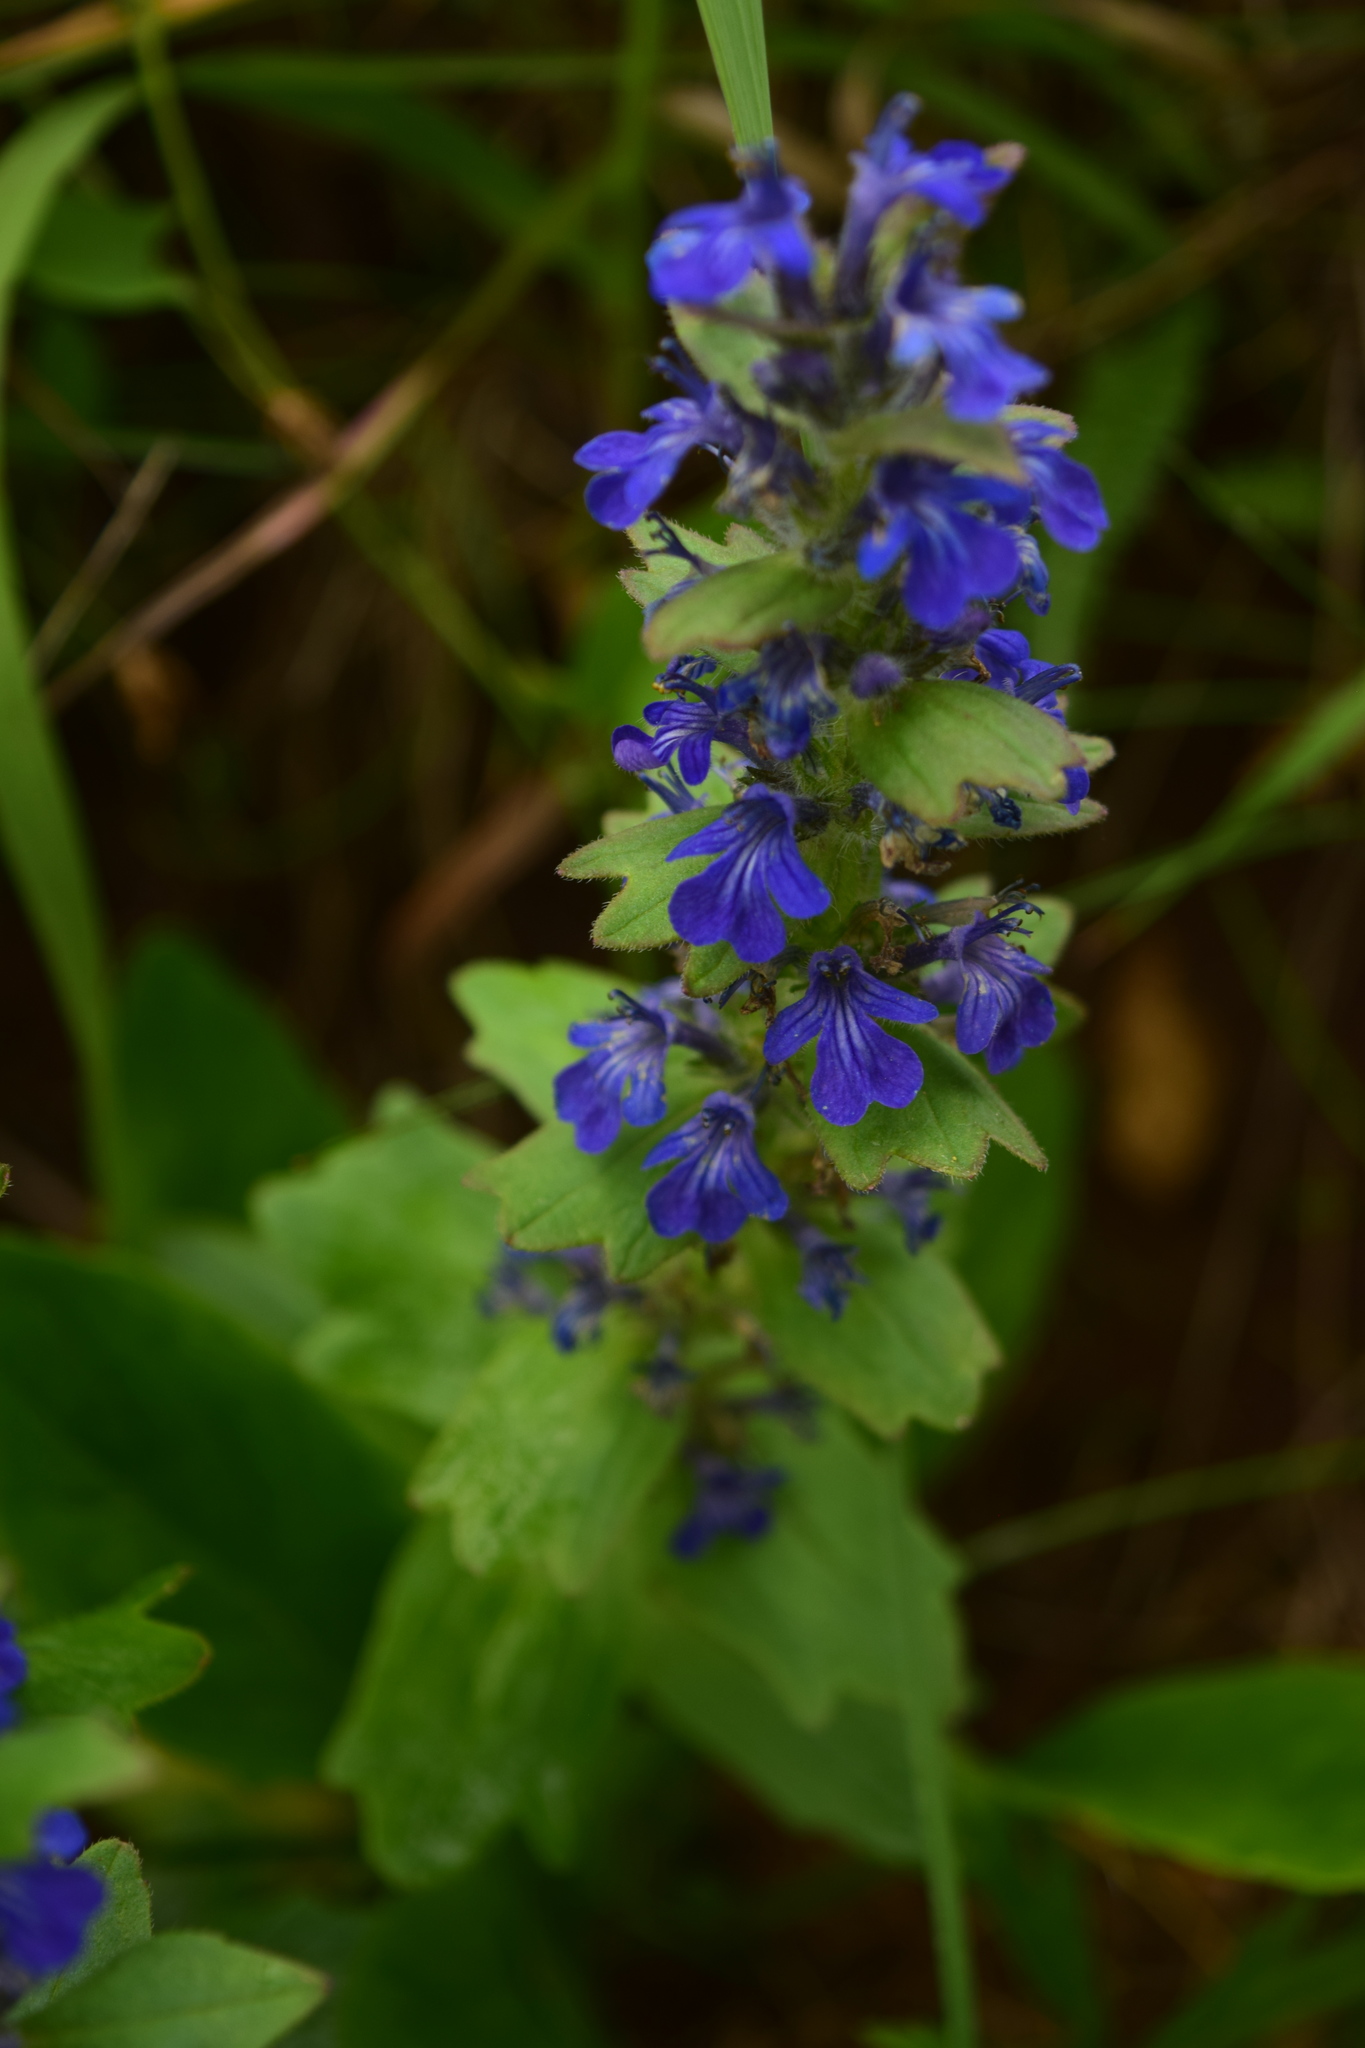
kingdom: Plantae
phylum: Tracheophyta
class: Magnoliopsida
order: Lamiales
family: Lamiaceae
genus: Ajuga
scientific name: Ajuga genevensis
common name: Blue bugle
